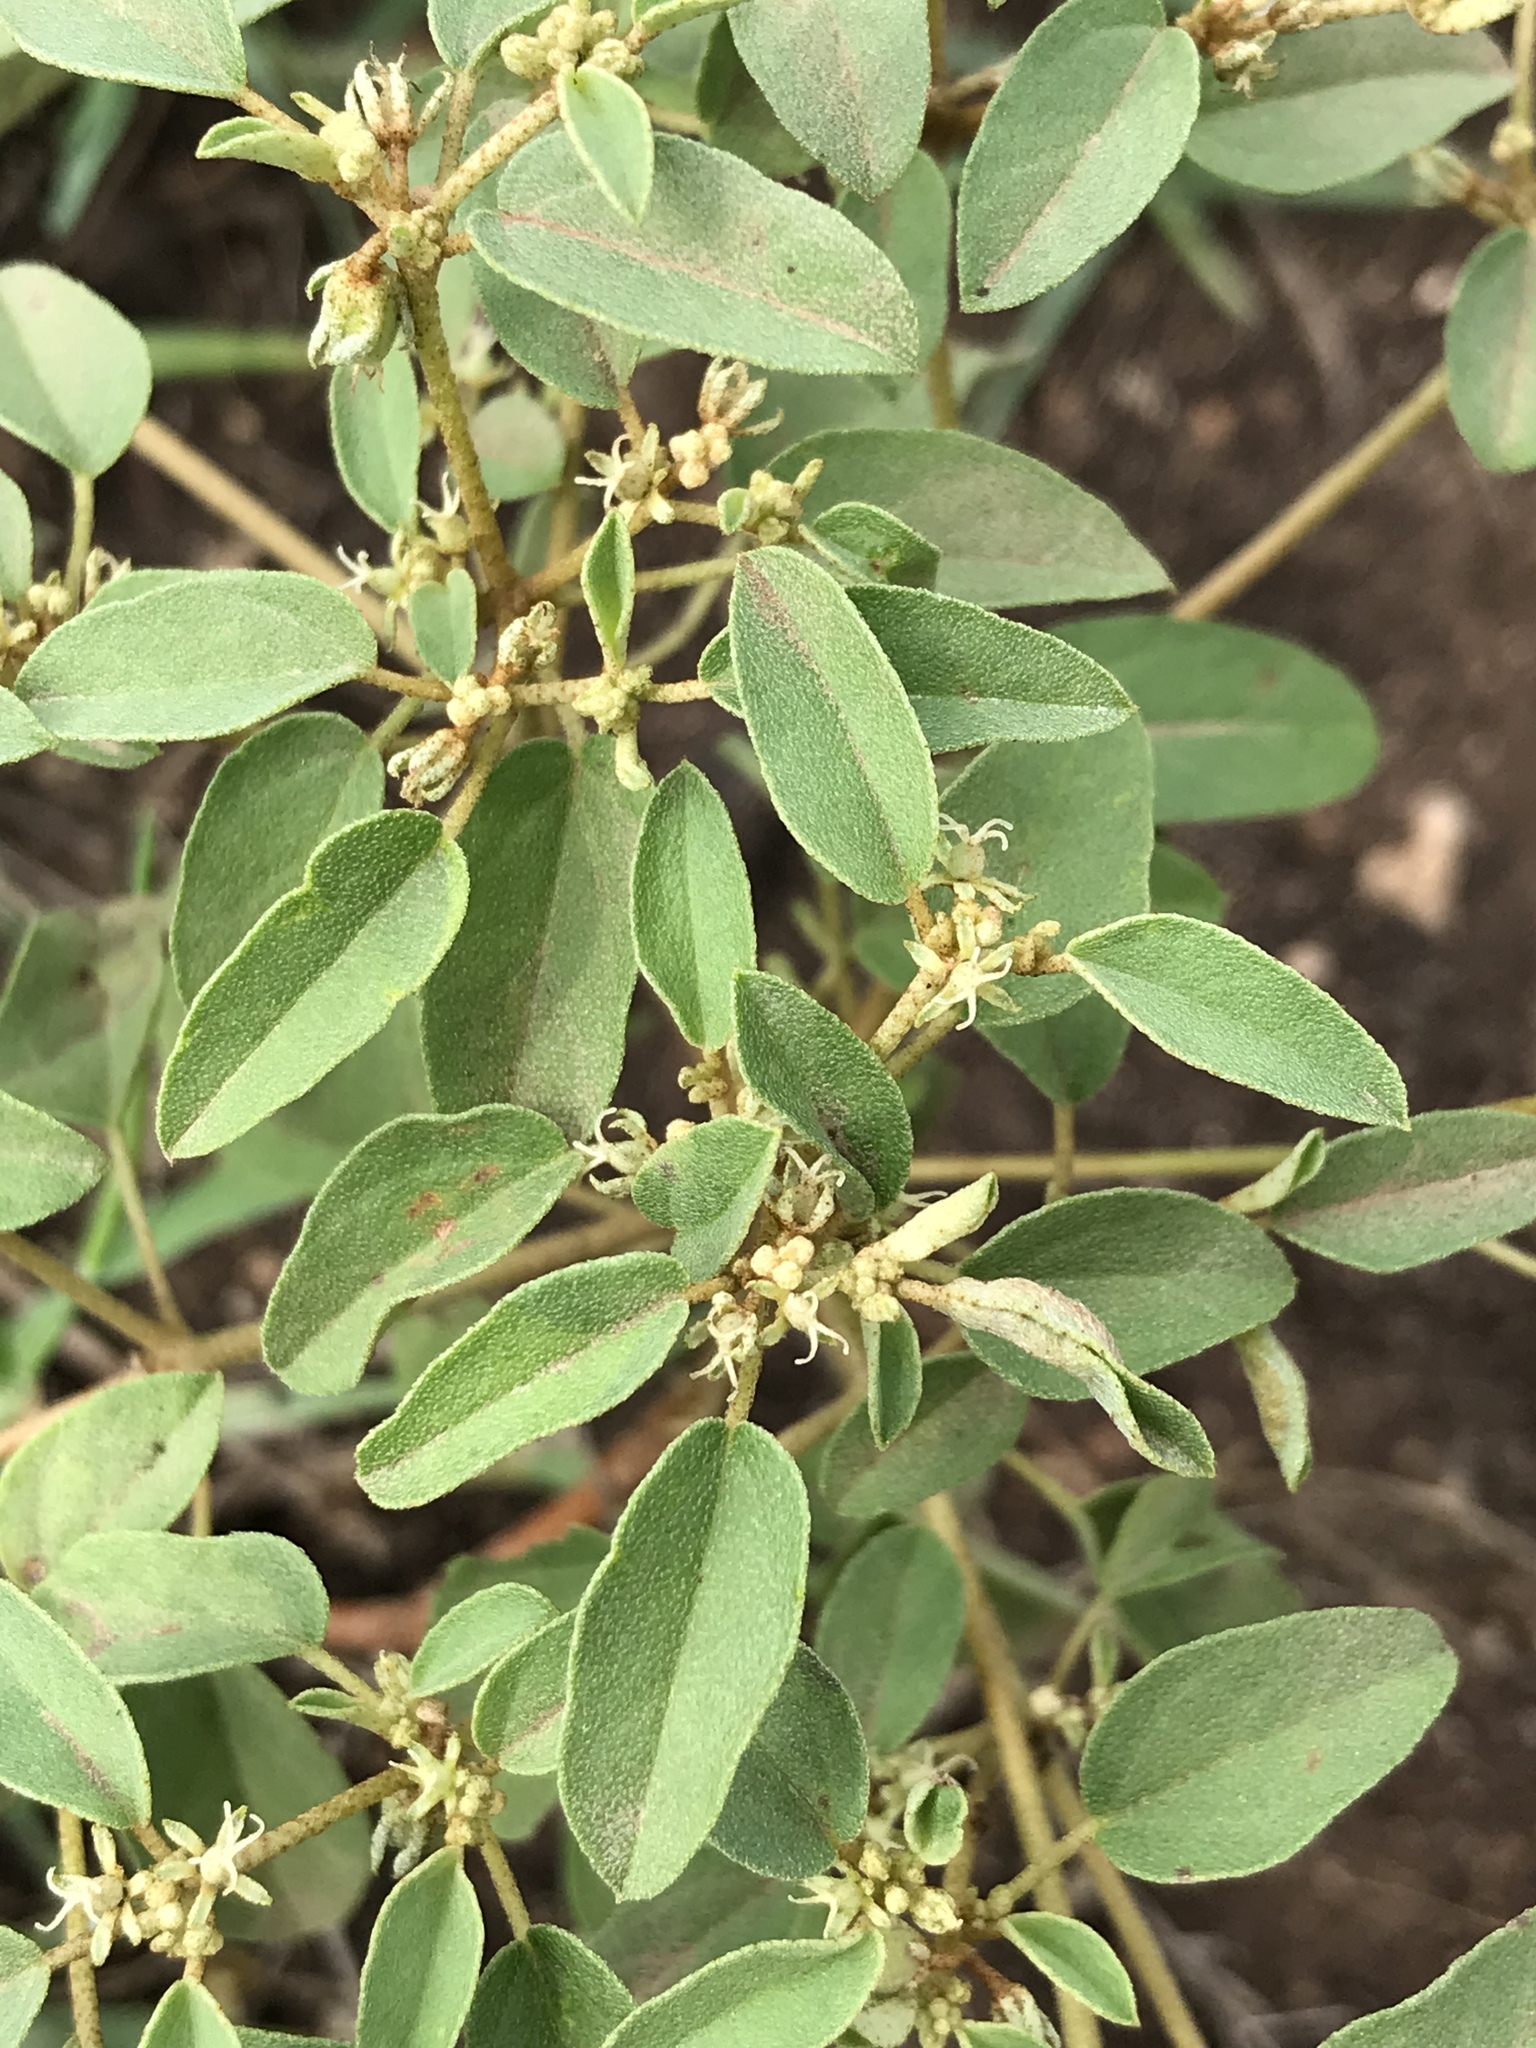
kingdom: Plantae
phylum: Tracheophyta
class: Magnoliopsida
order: Malpighiales
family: Euphorbiaceae
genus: Croton
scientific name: Croton monanthogynus
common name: One-seed croton
